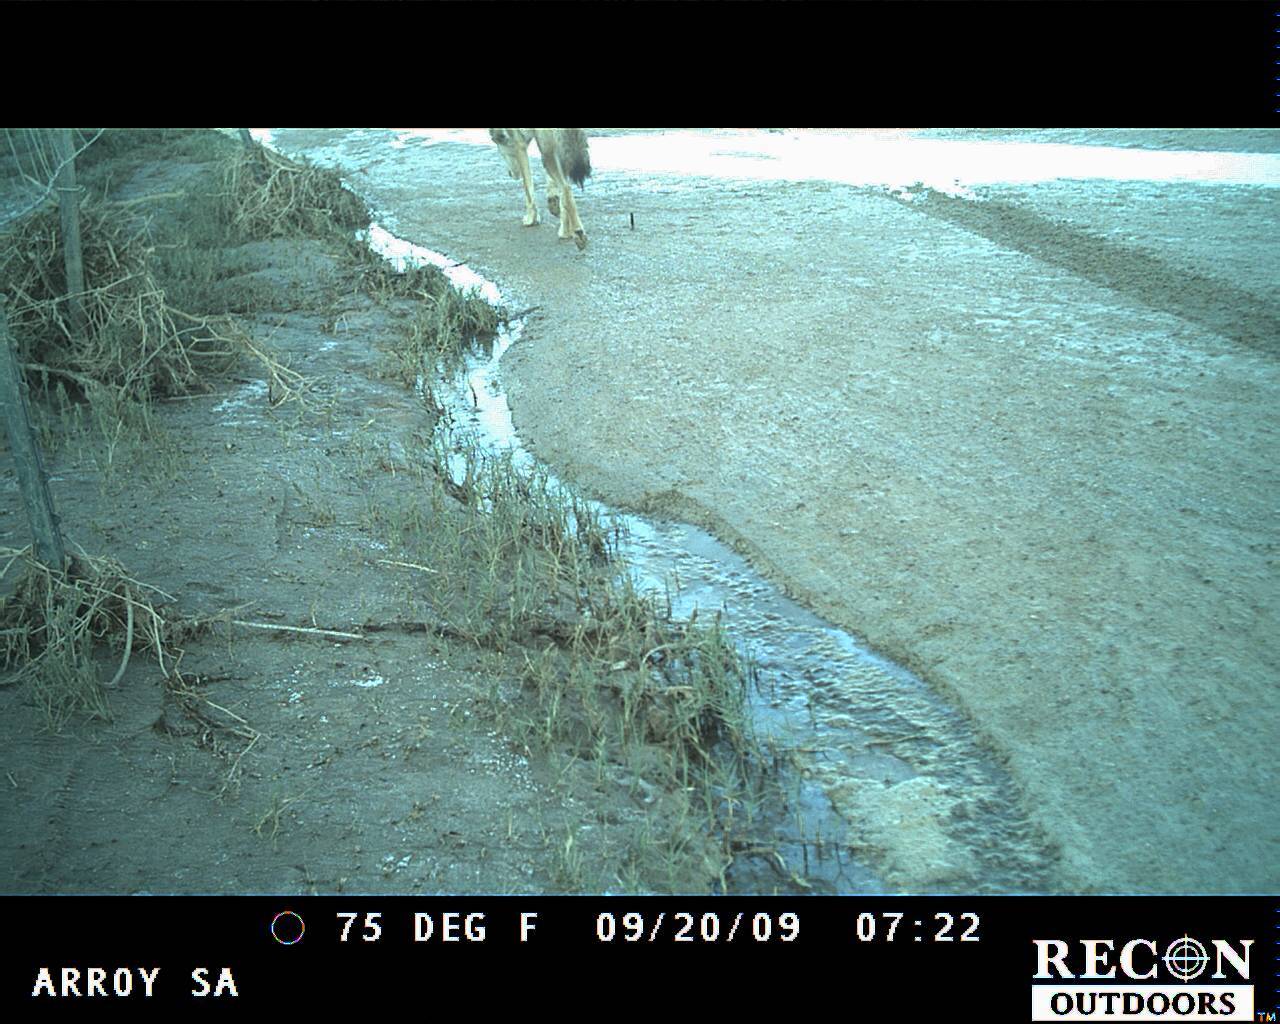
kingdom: Animalia
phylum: Chordata
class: Mammalia
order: Carnivora
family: Canidae
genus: Canis
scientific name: Canis latrans
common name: Coyote
